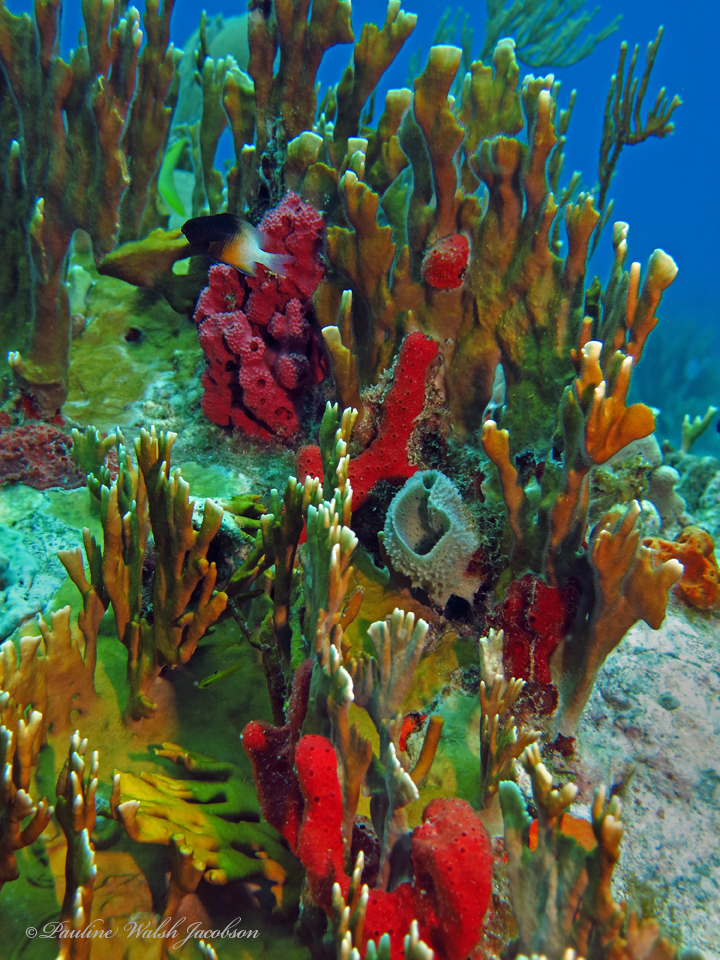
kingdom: Animalia
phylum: Chordata
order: Perciformes
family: Pomacentridae
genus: Stegastes
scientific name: Stegastes partitus
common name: Bicolor damselfish
